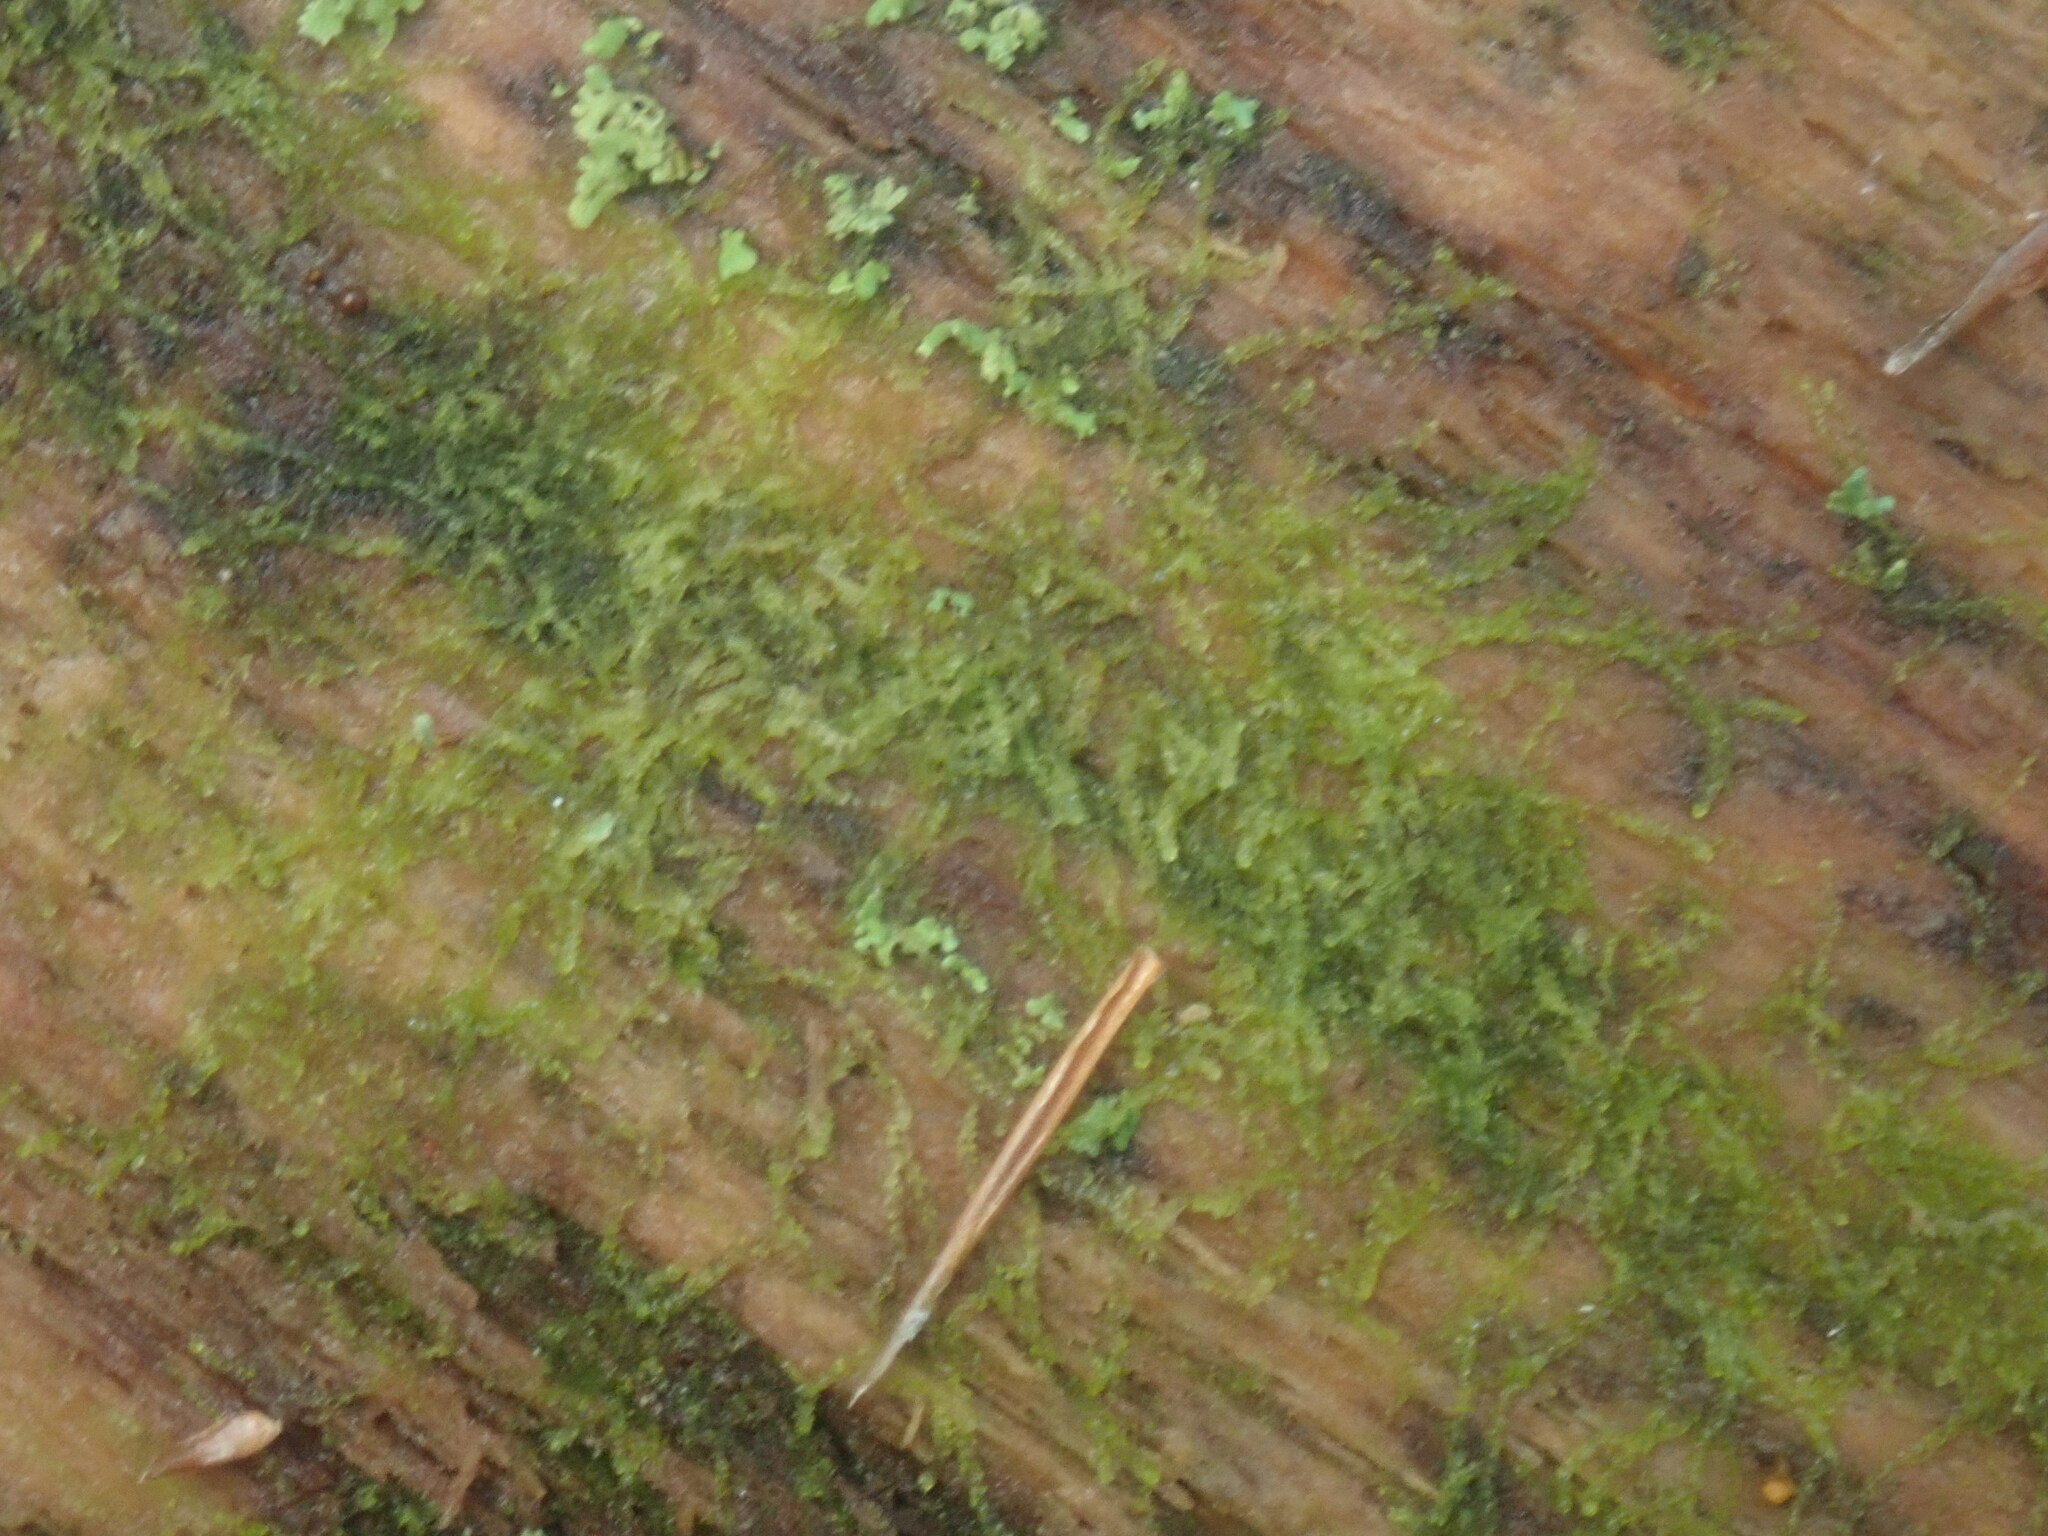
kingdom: Plantae
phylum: Marchantiophyta
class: Jungermanniopsida
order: Jungermanniales
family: Cephaloziaceae
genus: Nowellia
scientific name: Nowellia curvifolia
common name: Wood rustwort
